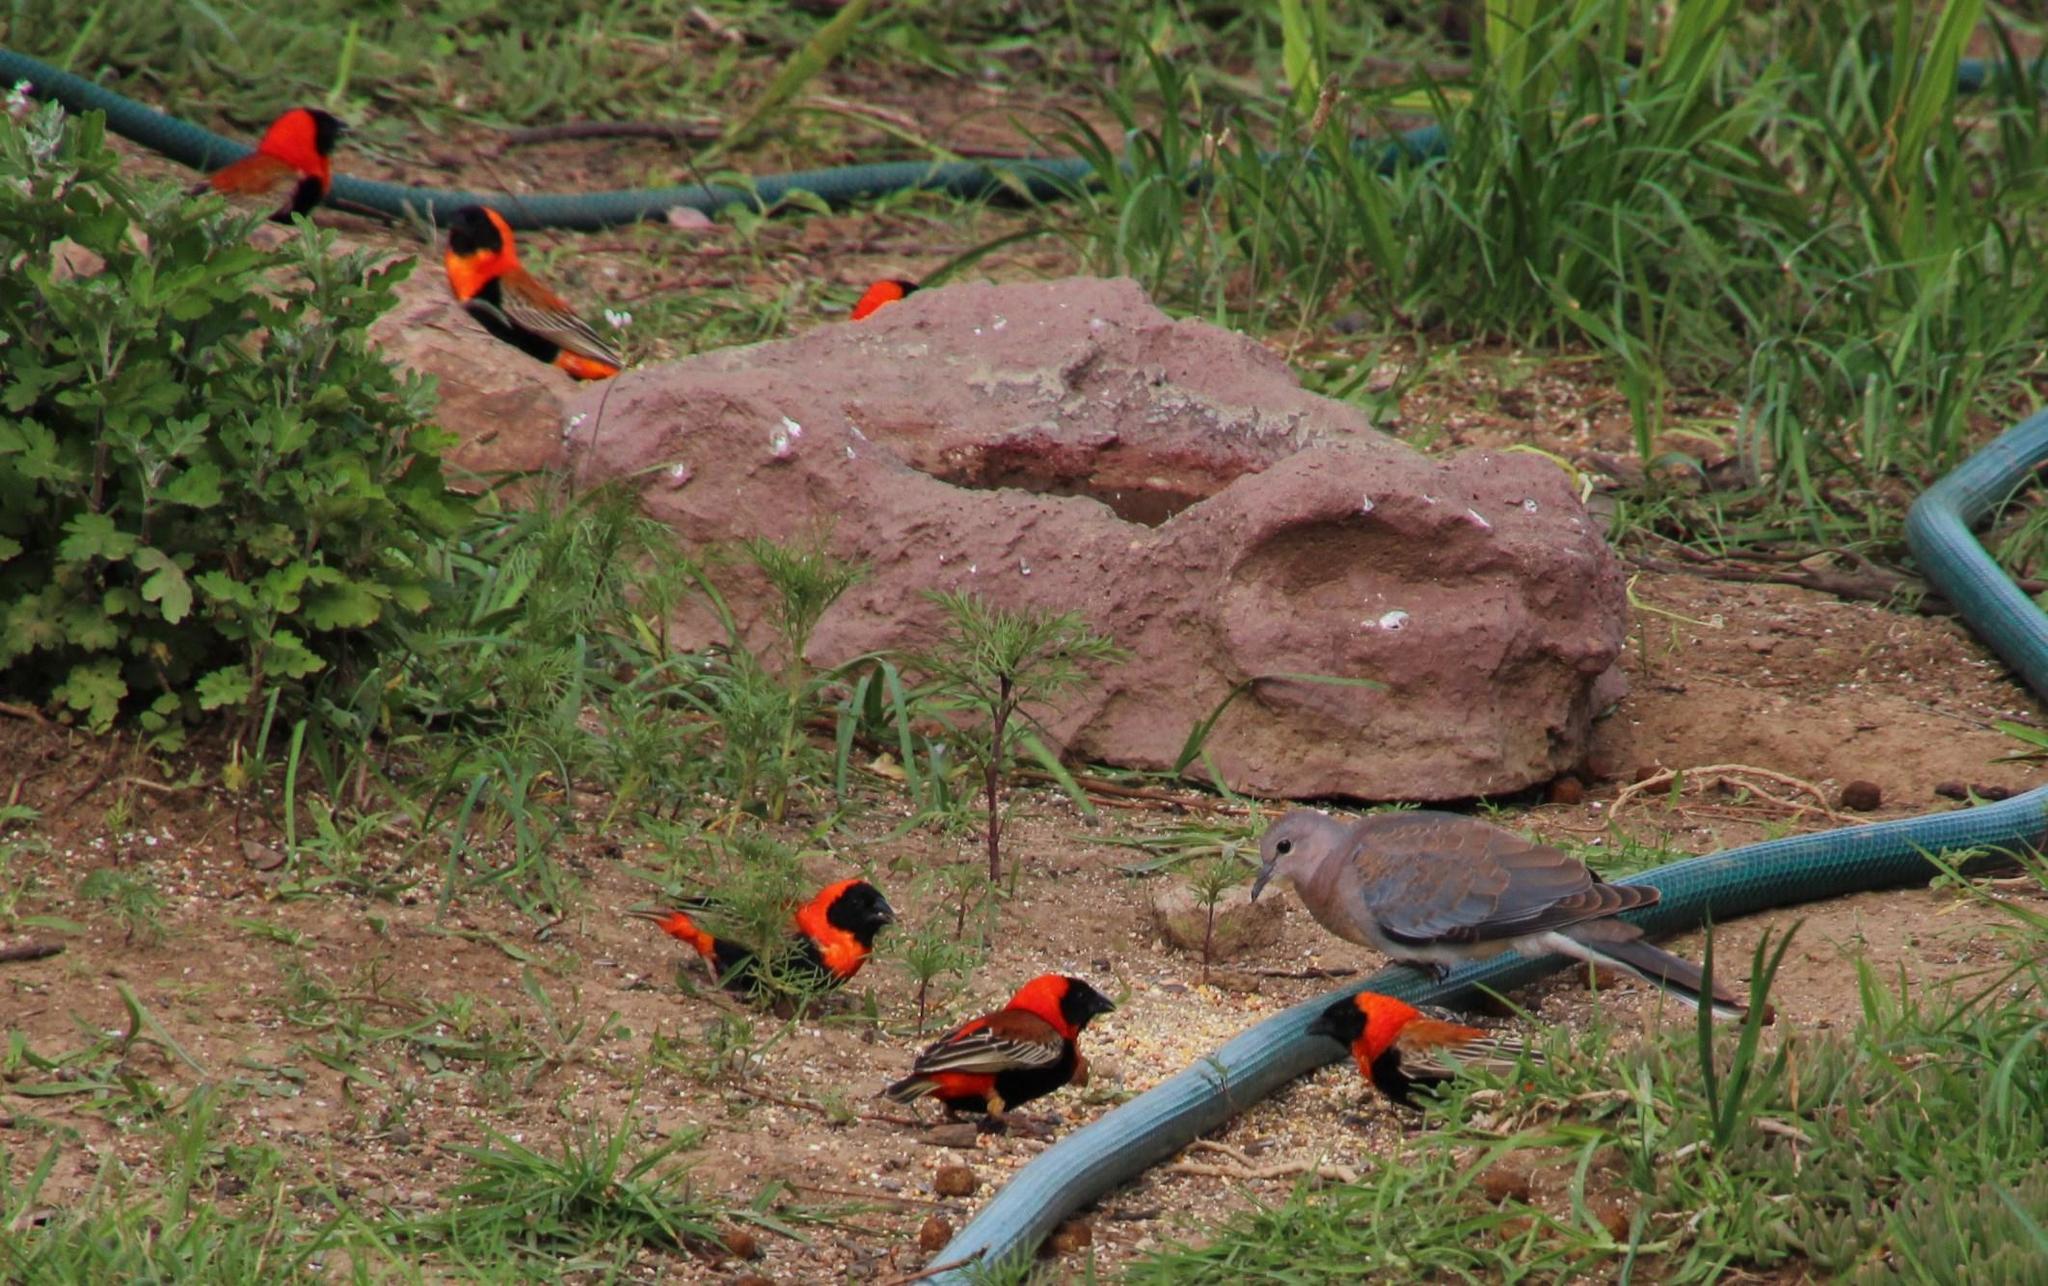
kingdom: Animalia
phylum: Chordata
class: Aves
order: Passeriformes
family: Ploceidae
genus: Euplectes
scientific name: Euplectes orix
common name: Southern red bishop
